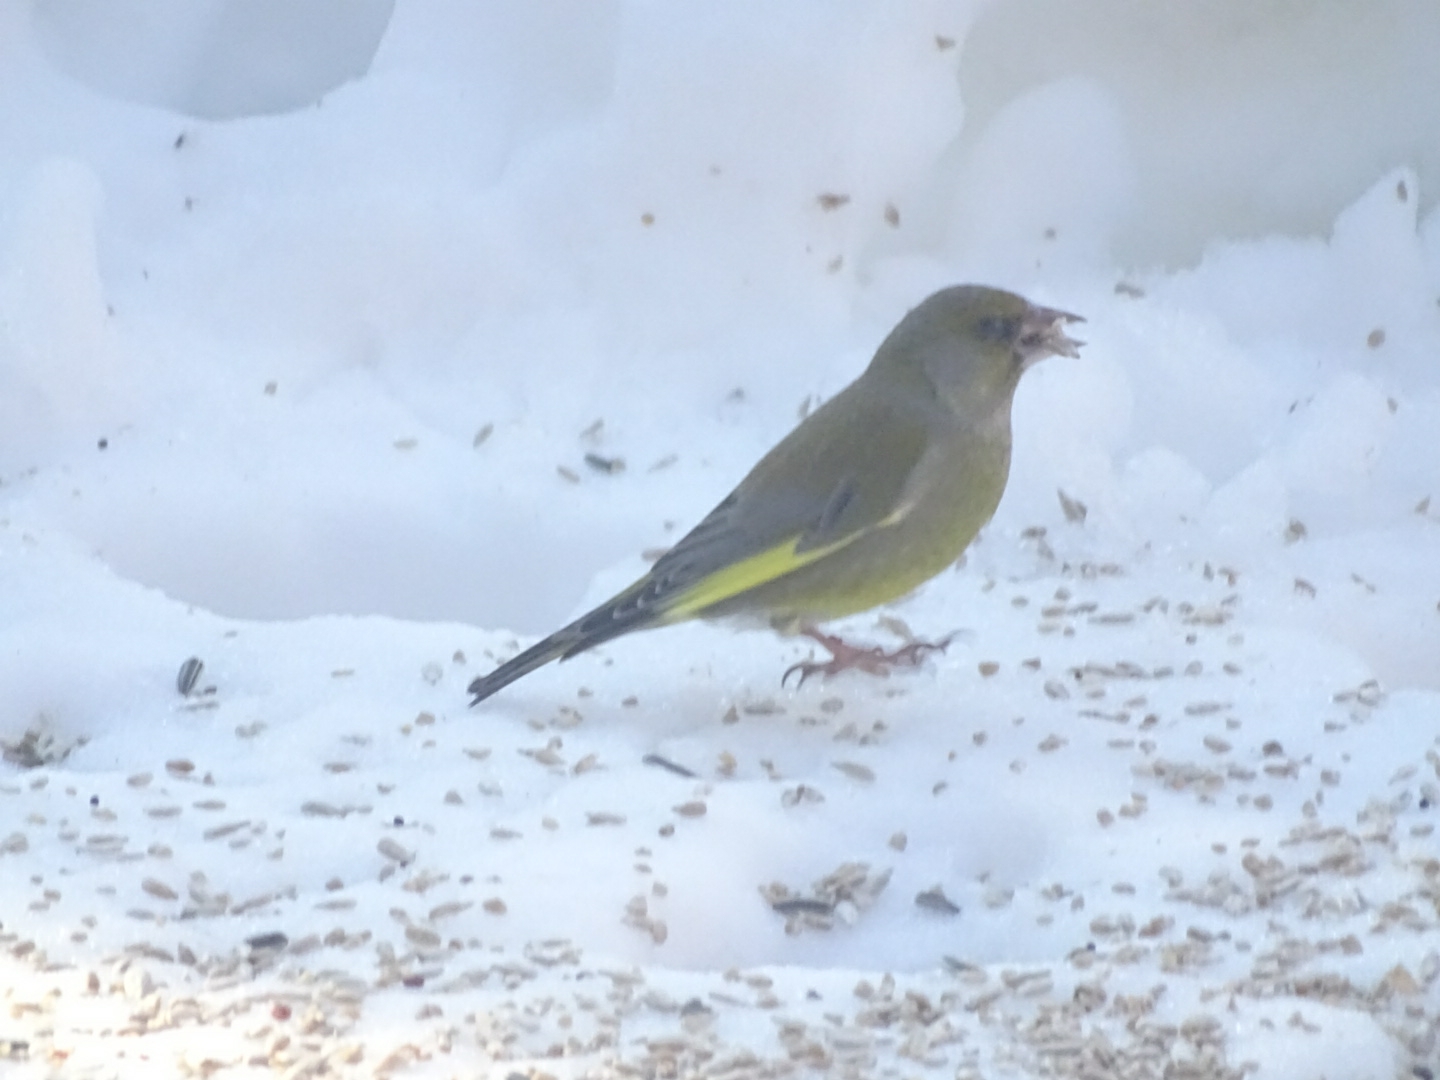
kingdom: Plantae
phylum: Tracheophyta
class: Liliopsida
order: Poales
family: Poaceae
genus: Chloris
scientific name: Chloris chloris
